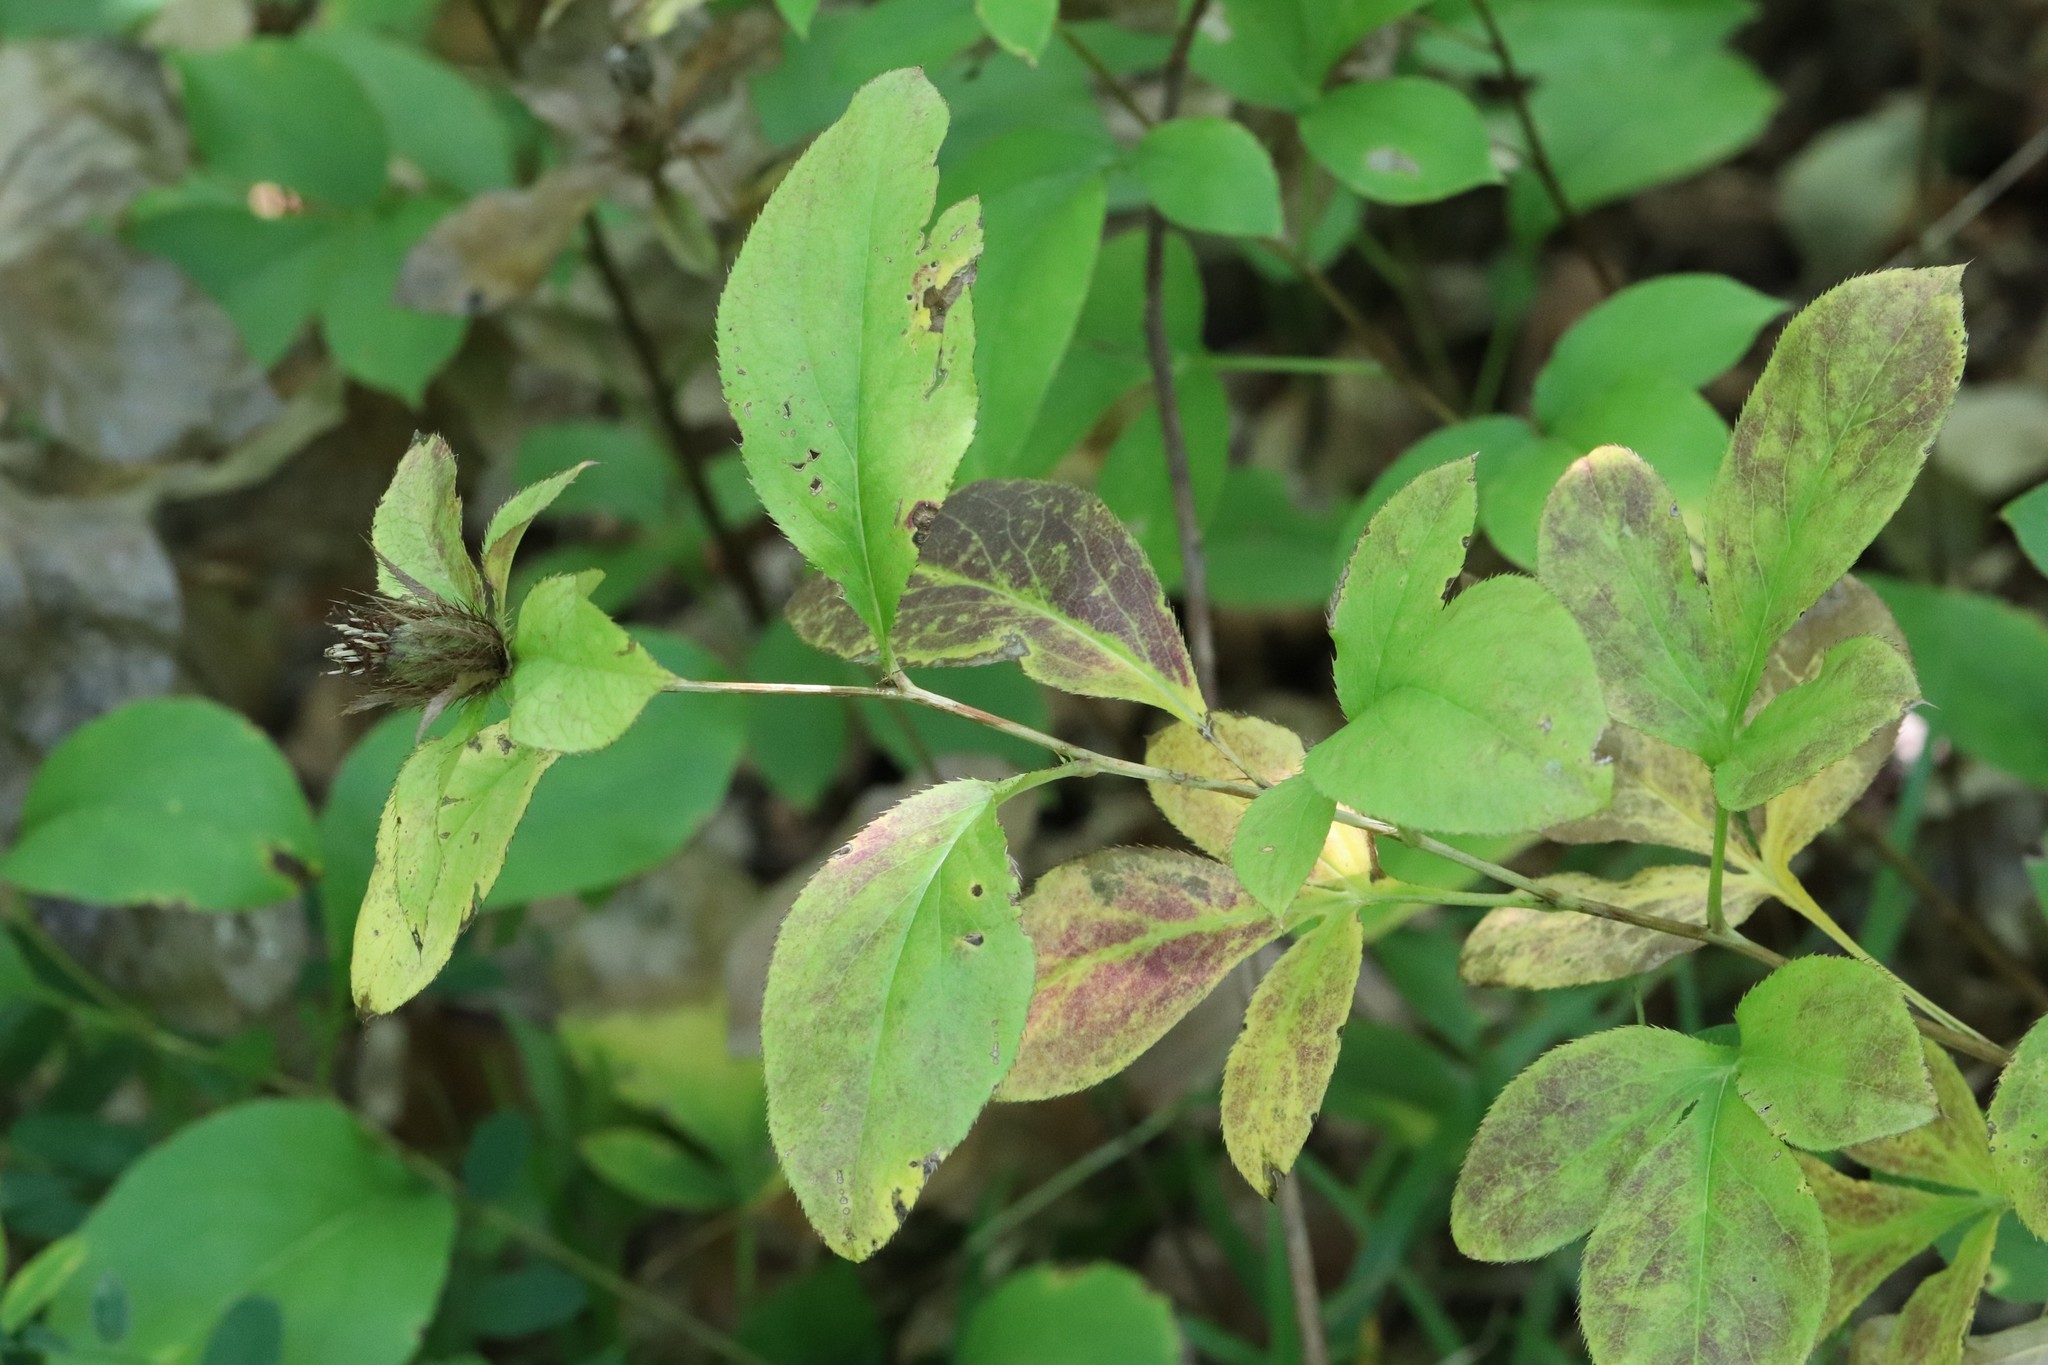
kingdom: Plantae
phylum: Tracheophyta
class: Magnoliopsida
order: Asterales
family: Asteraceae
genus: Atractylodes
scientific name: Atractylodes lancea
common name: Southern tsangshu
